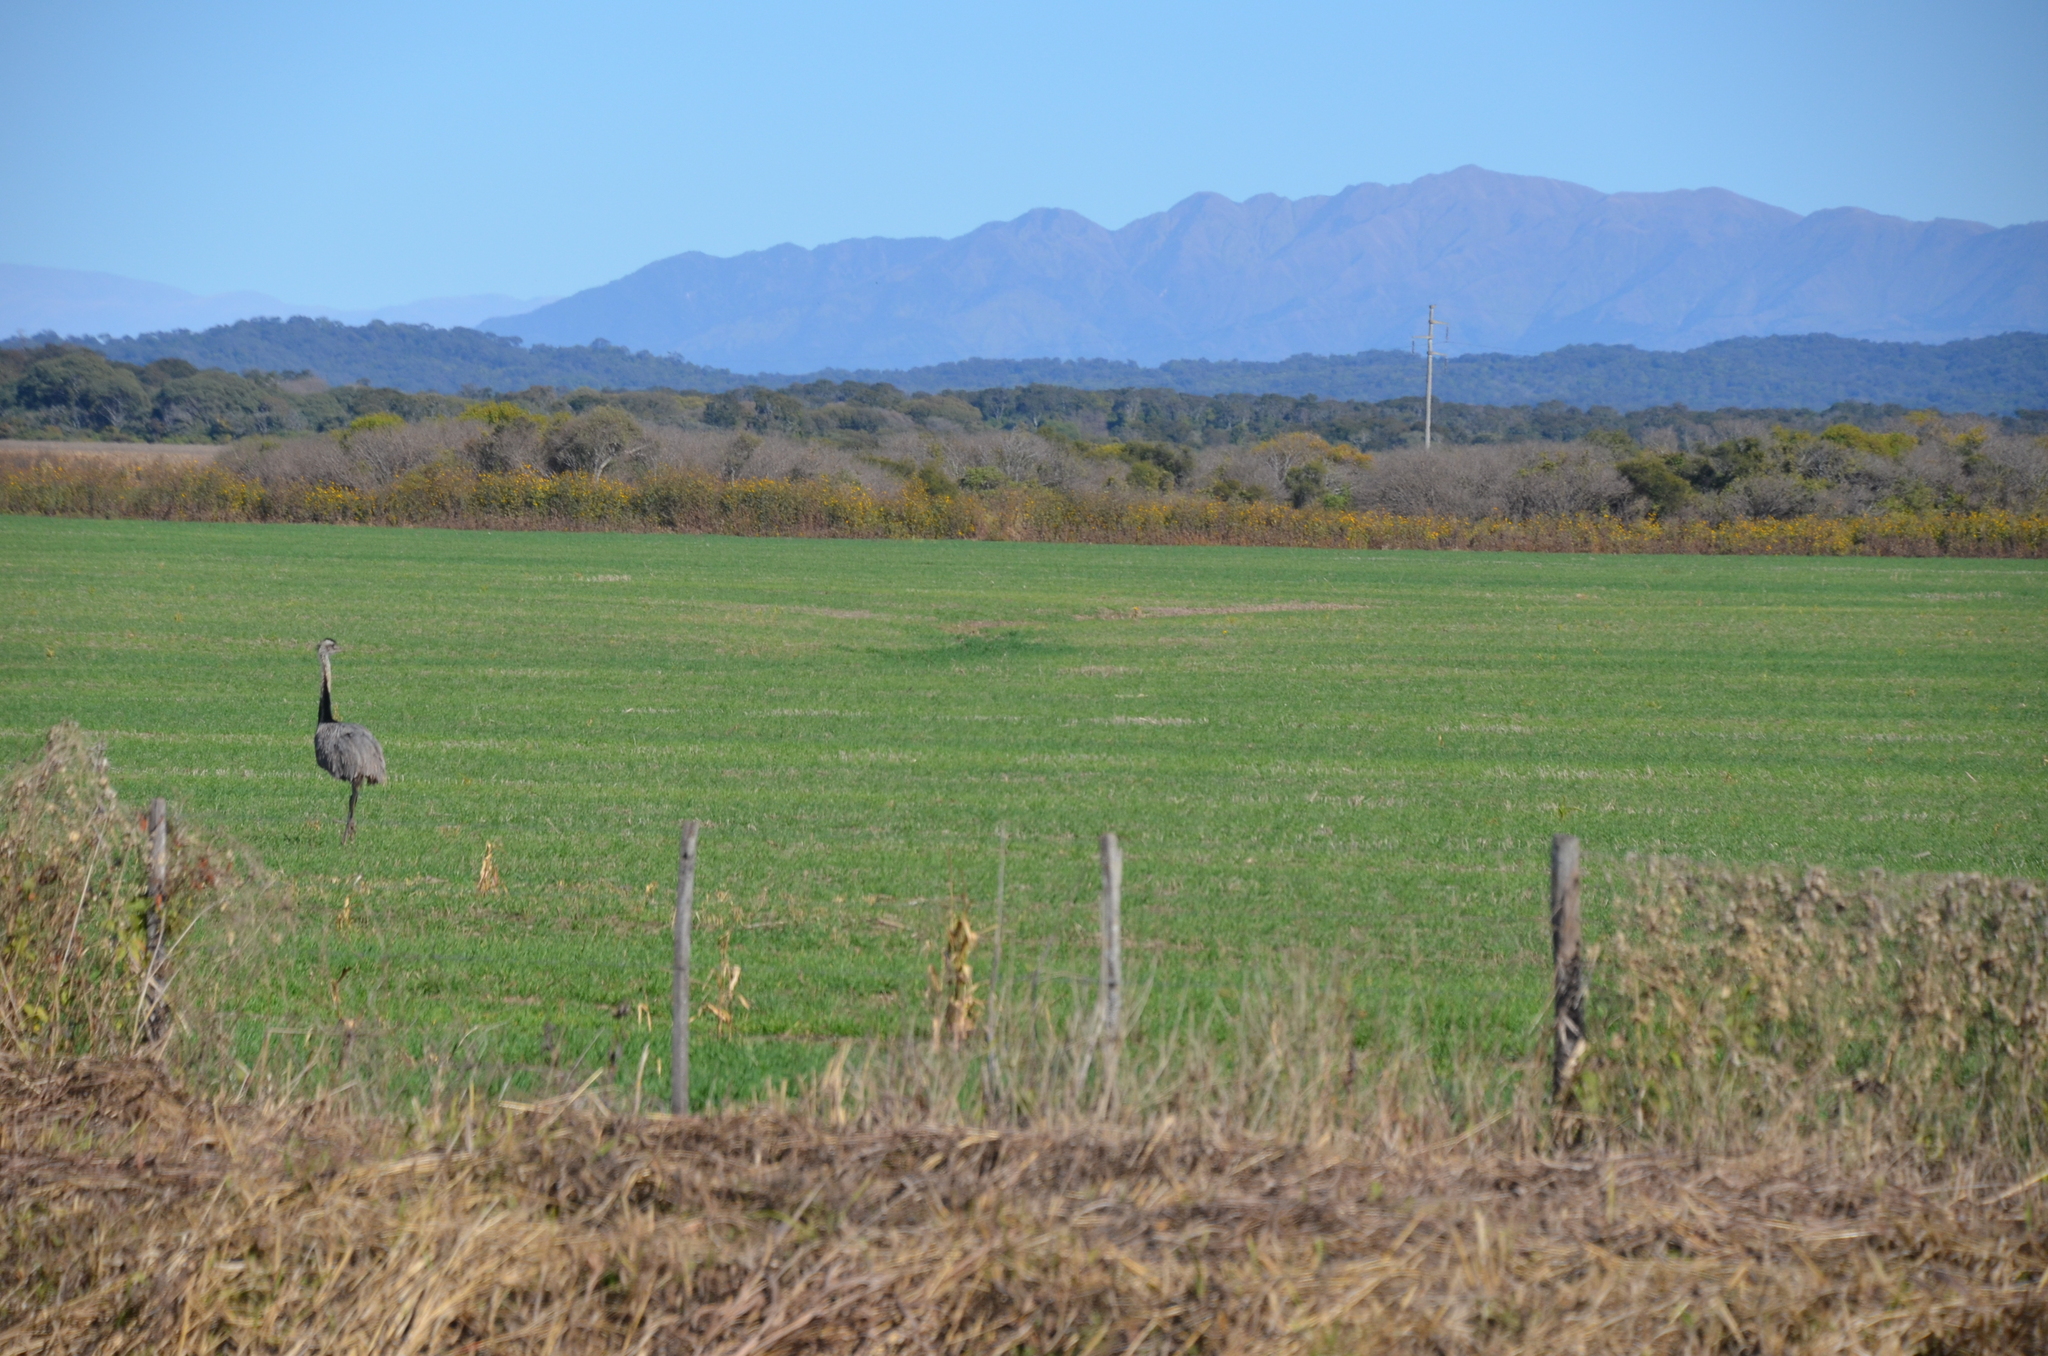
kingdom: Animalia
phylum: Chordata
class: Aves
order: Rheiformes
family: Rheidae
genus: Rhea
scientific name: Rhea americana
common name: Greater rhea
